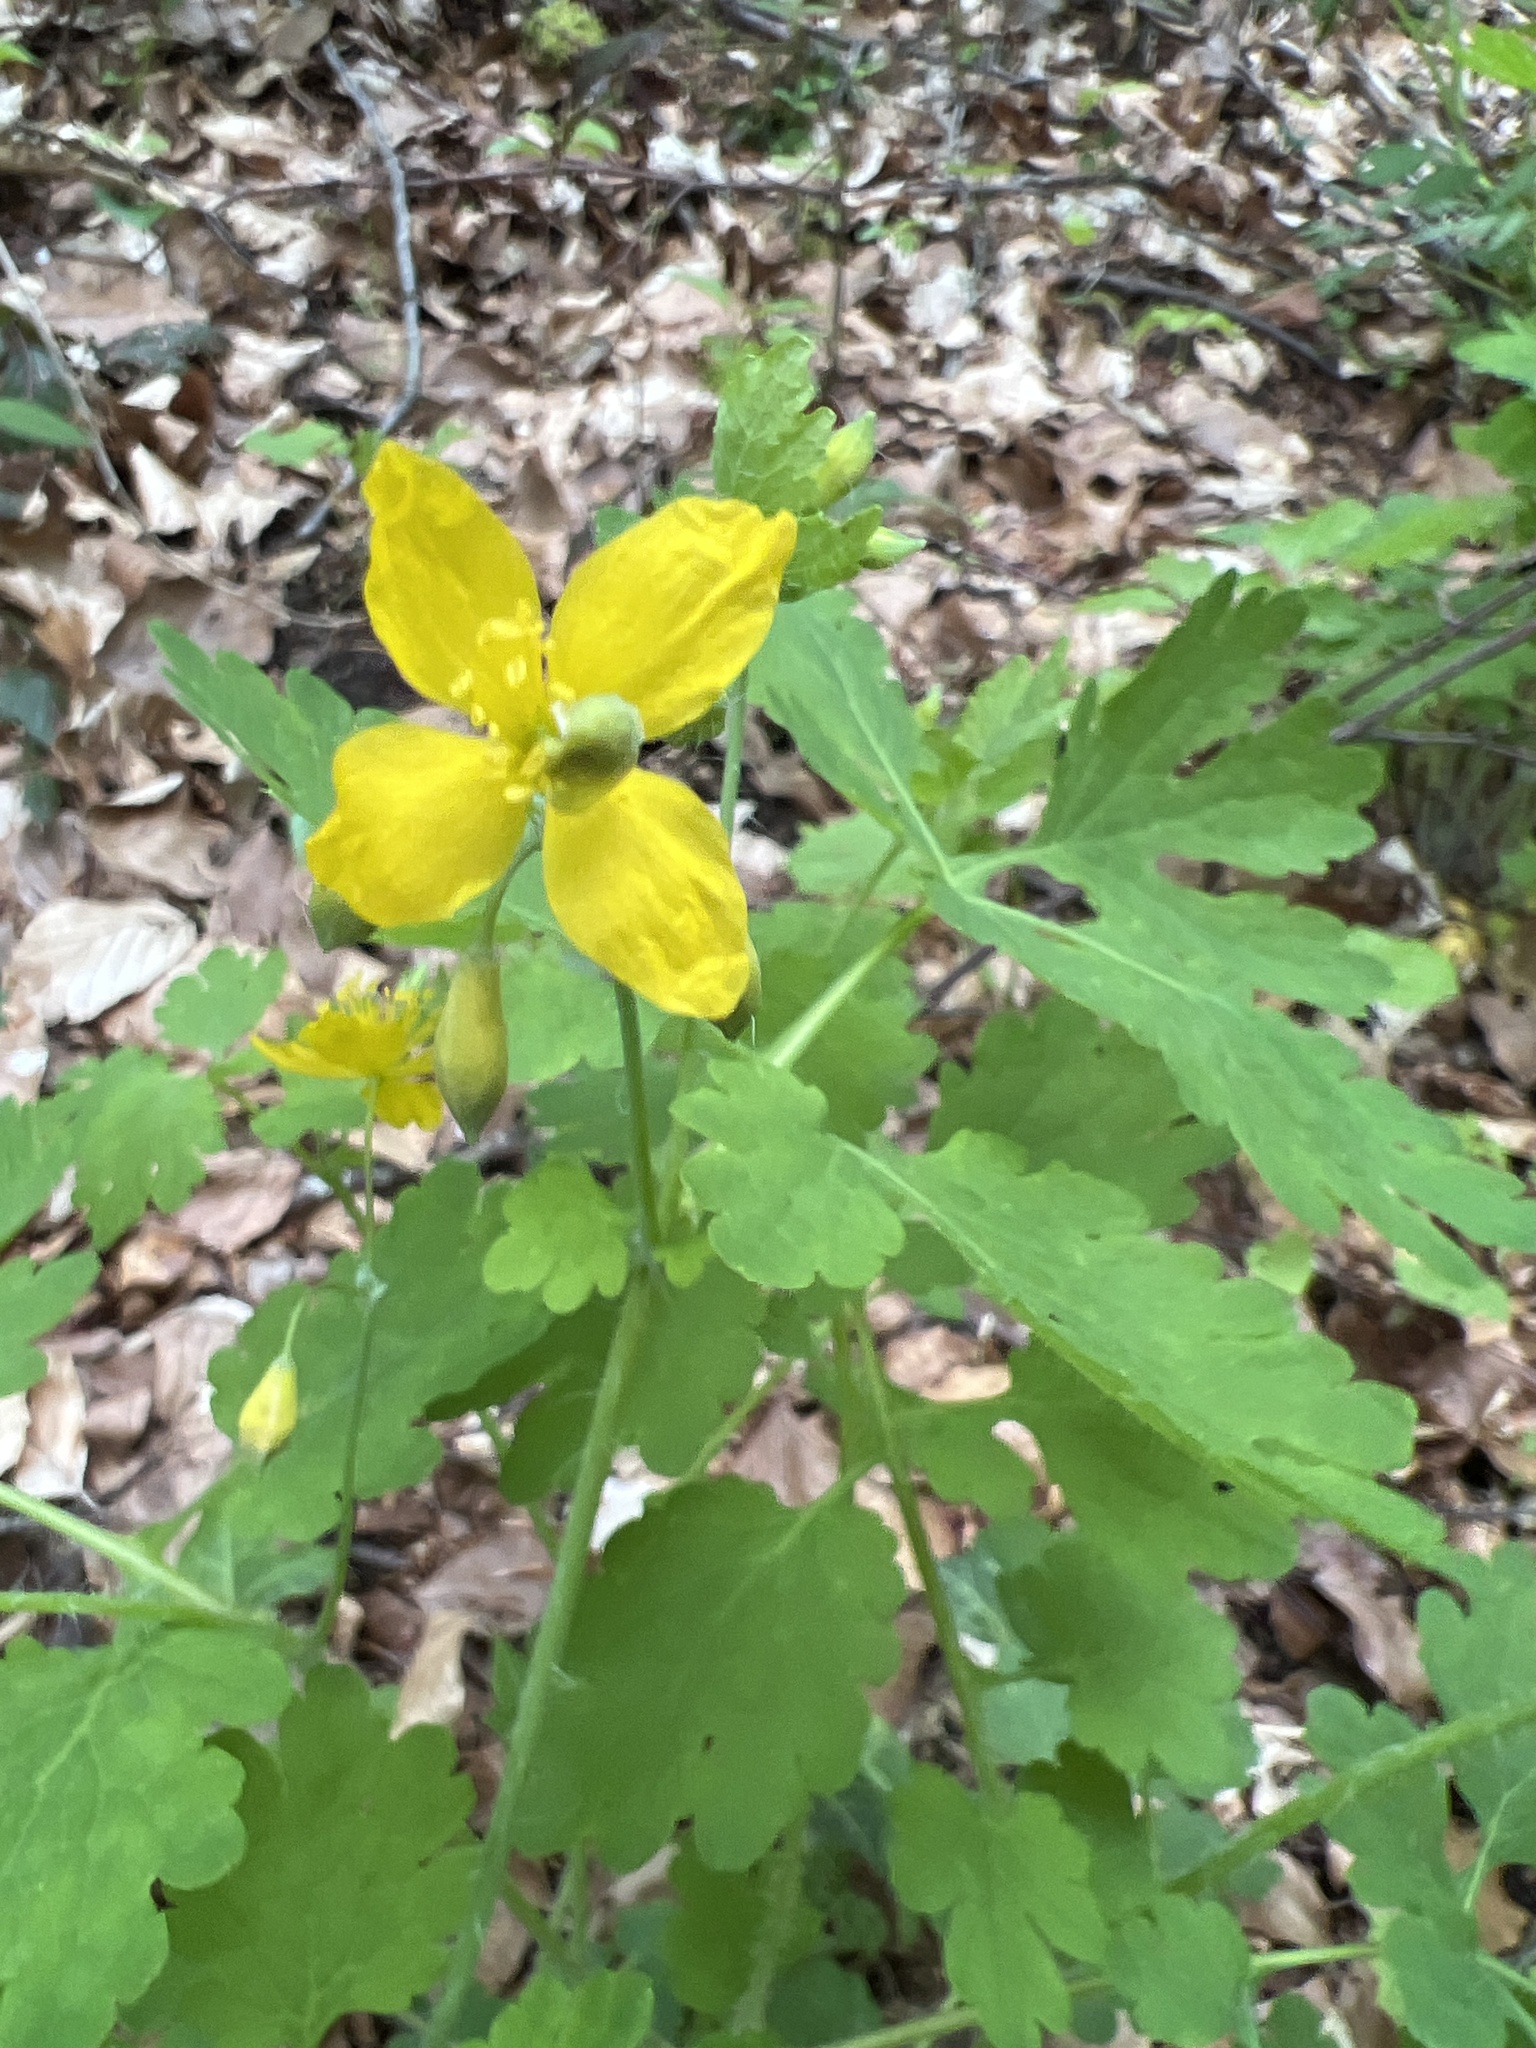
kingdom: Plantae
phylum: Tracheophyta
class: Magnoliopsida
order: Ranunculales
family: Papaveraceae
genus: Chelidonium
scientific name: Chelidonium majus
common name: Greater celandine
